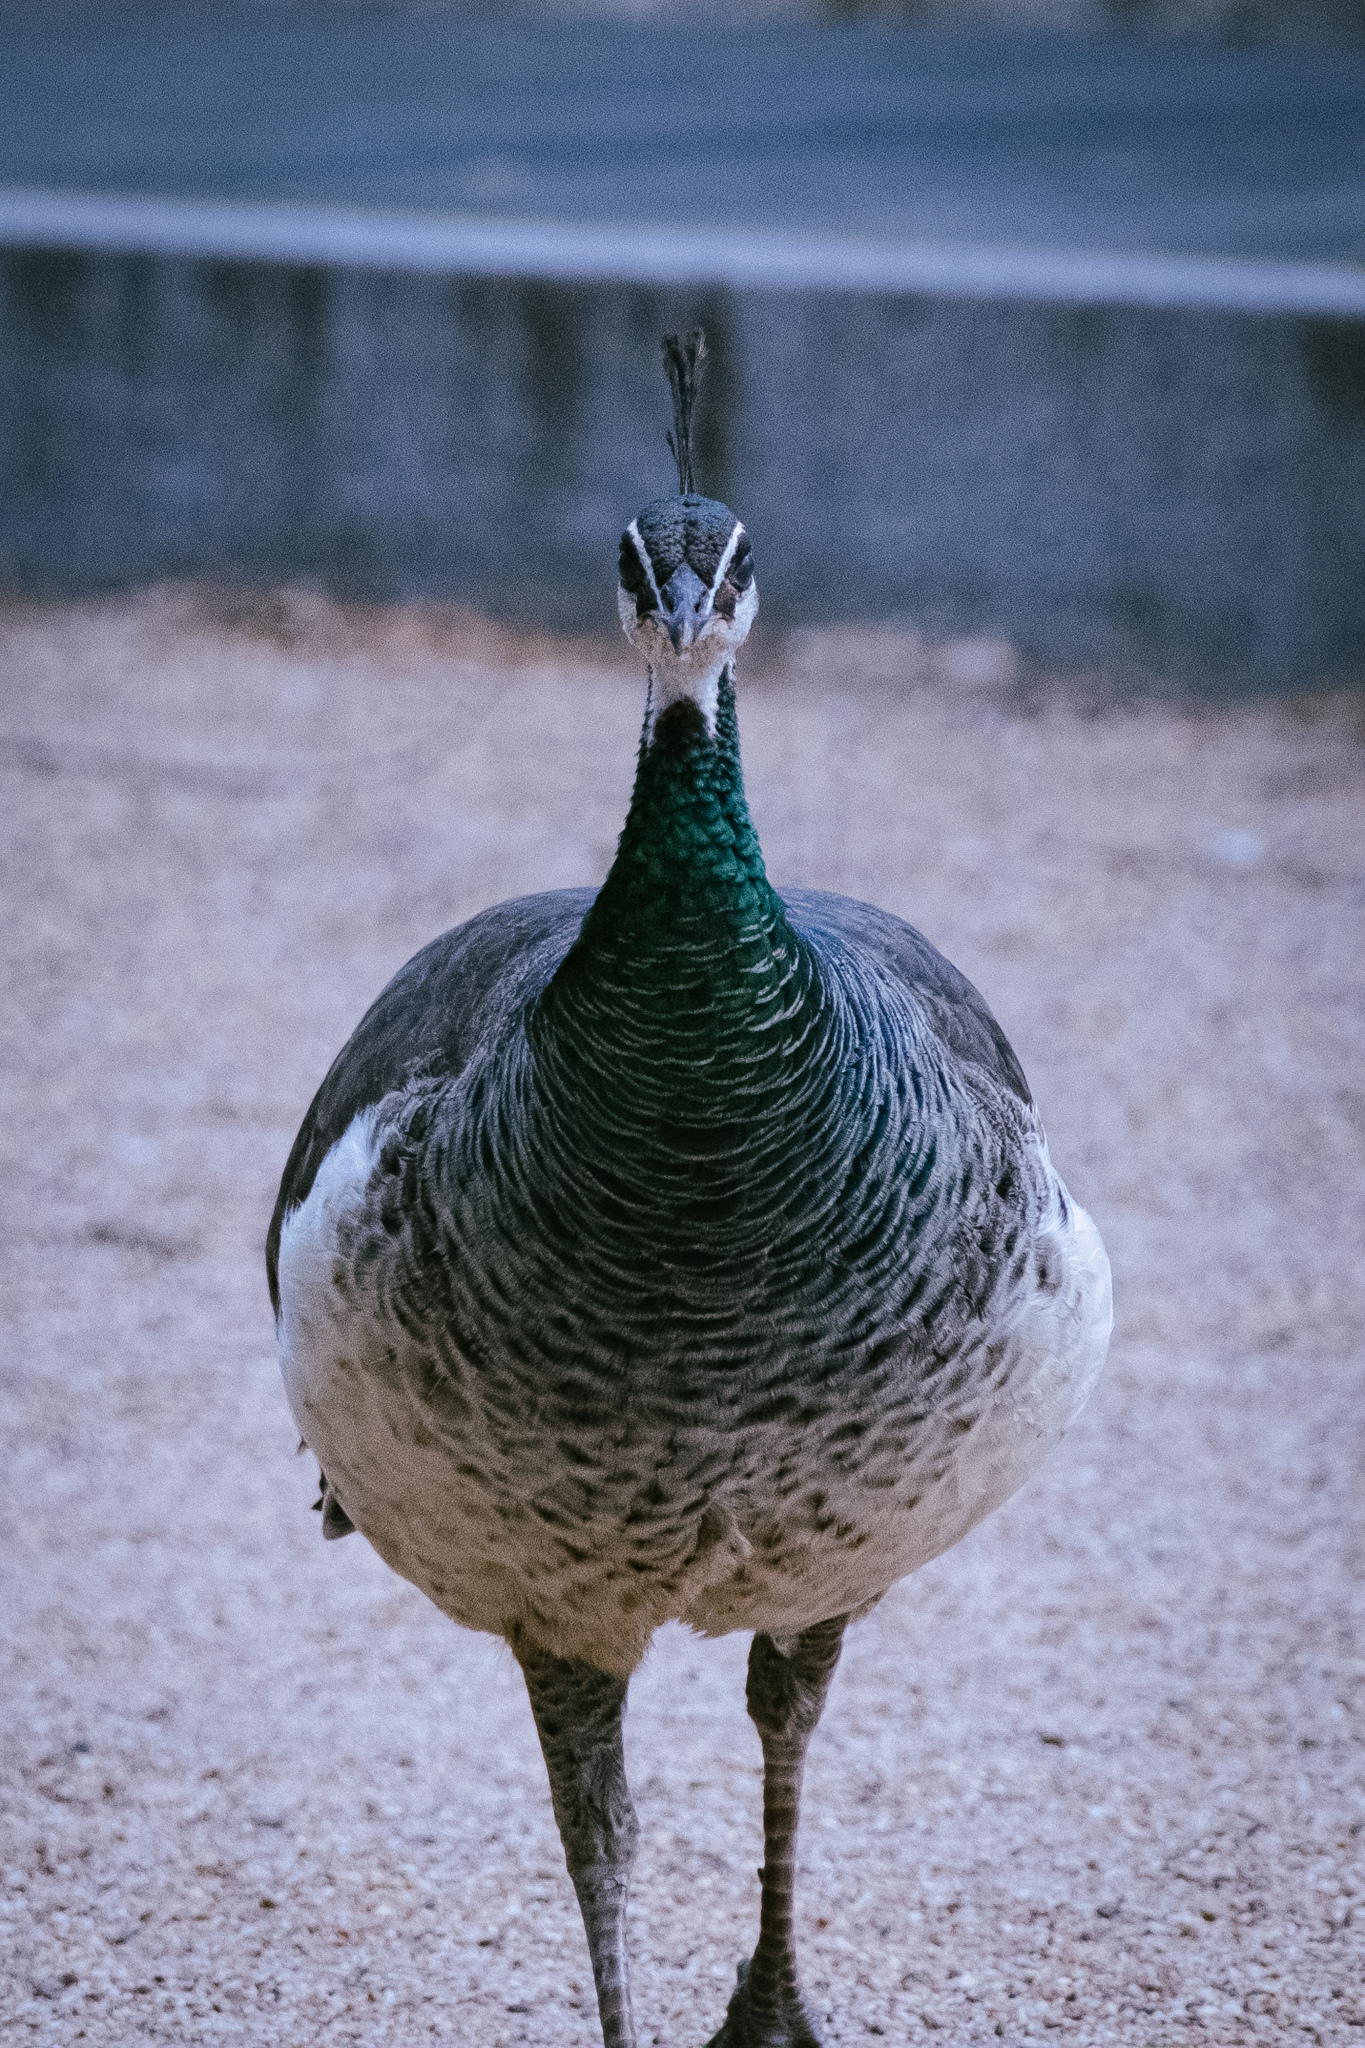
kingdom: Animalia
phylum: Chordata
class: Aves
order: Galliformes
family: Phasianidae
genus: Pavo
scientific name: Pavo cristatus
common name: Indian peafowl
